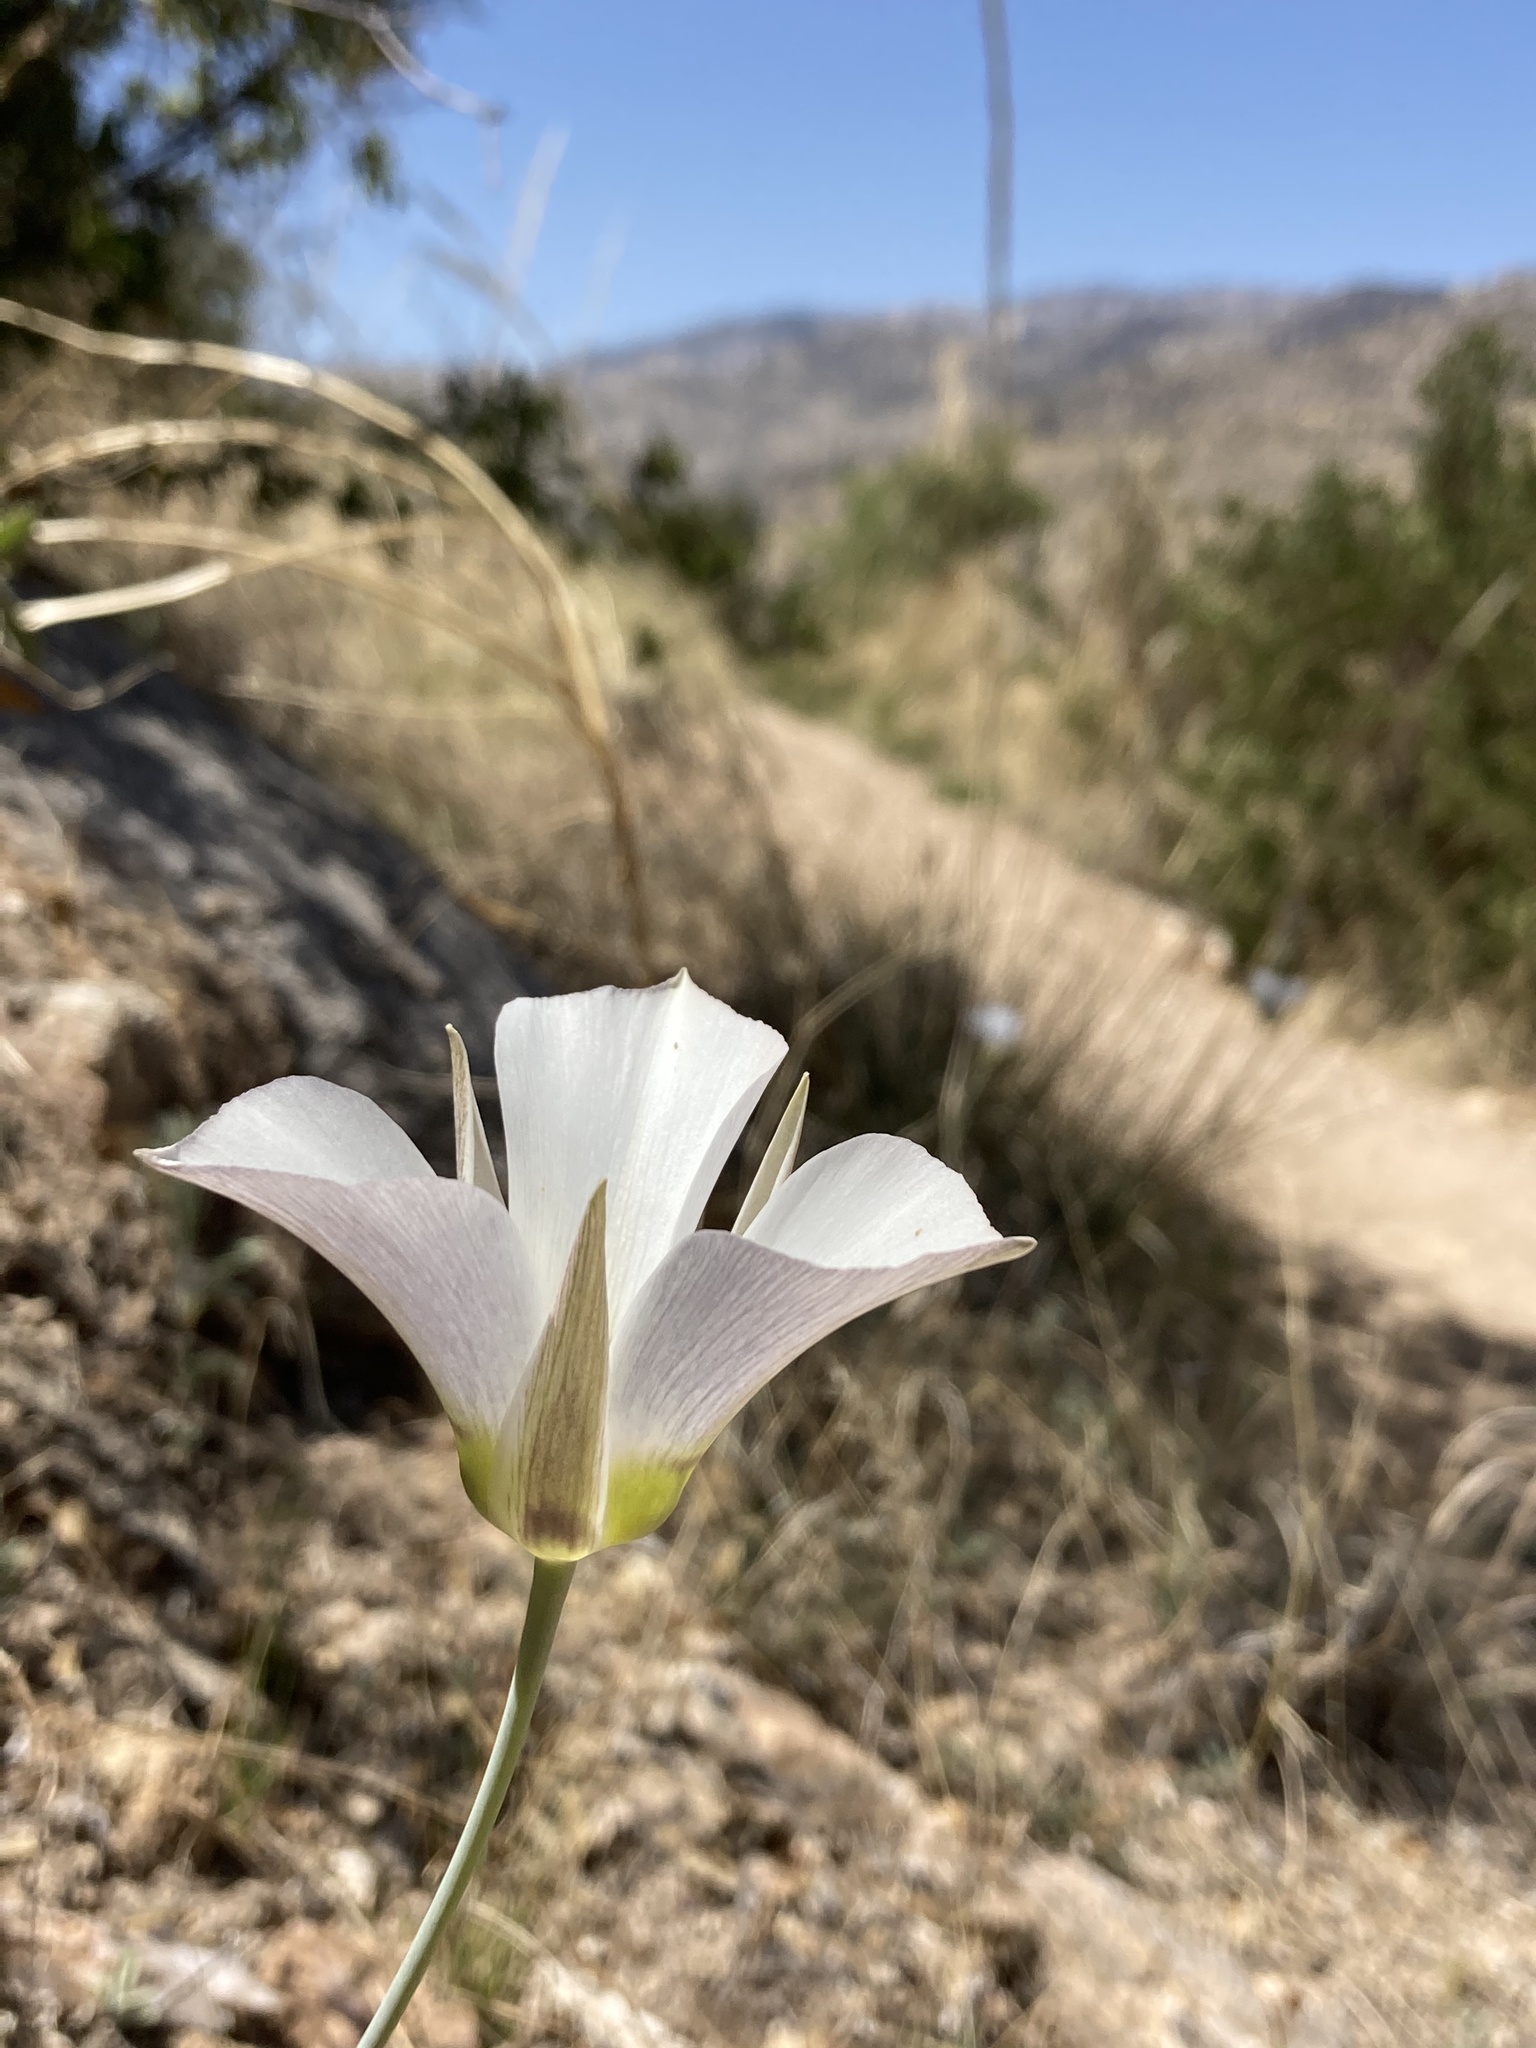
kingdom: Plantae
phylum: Tracheophyta
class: Liliopsida
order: Liliales
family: Liliaceae
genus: Calochortus
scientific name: Calochortus ambiguus
